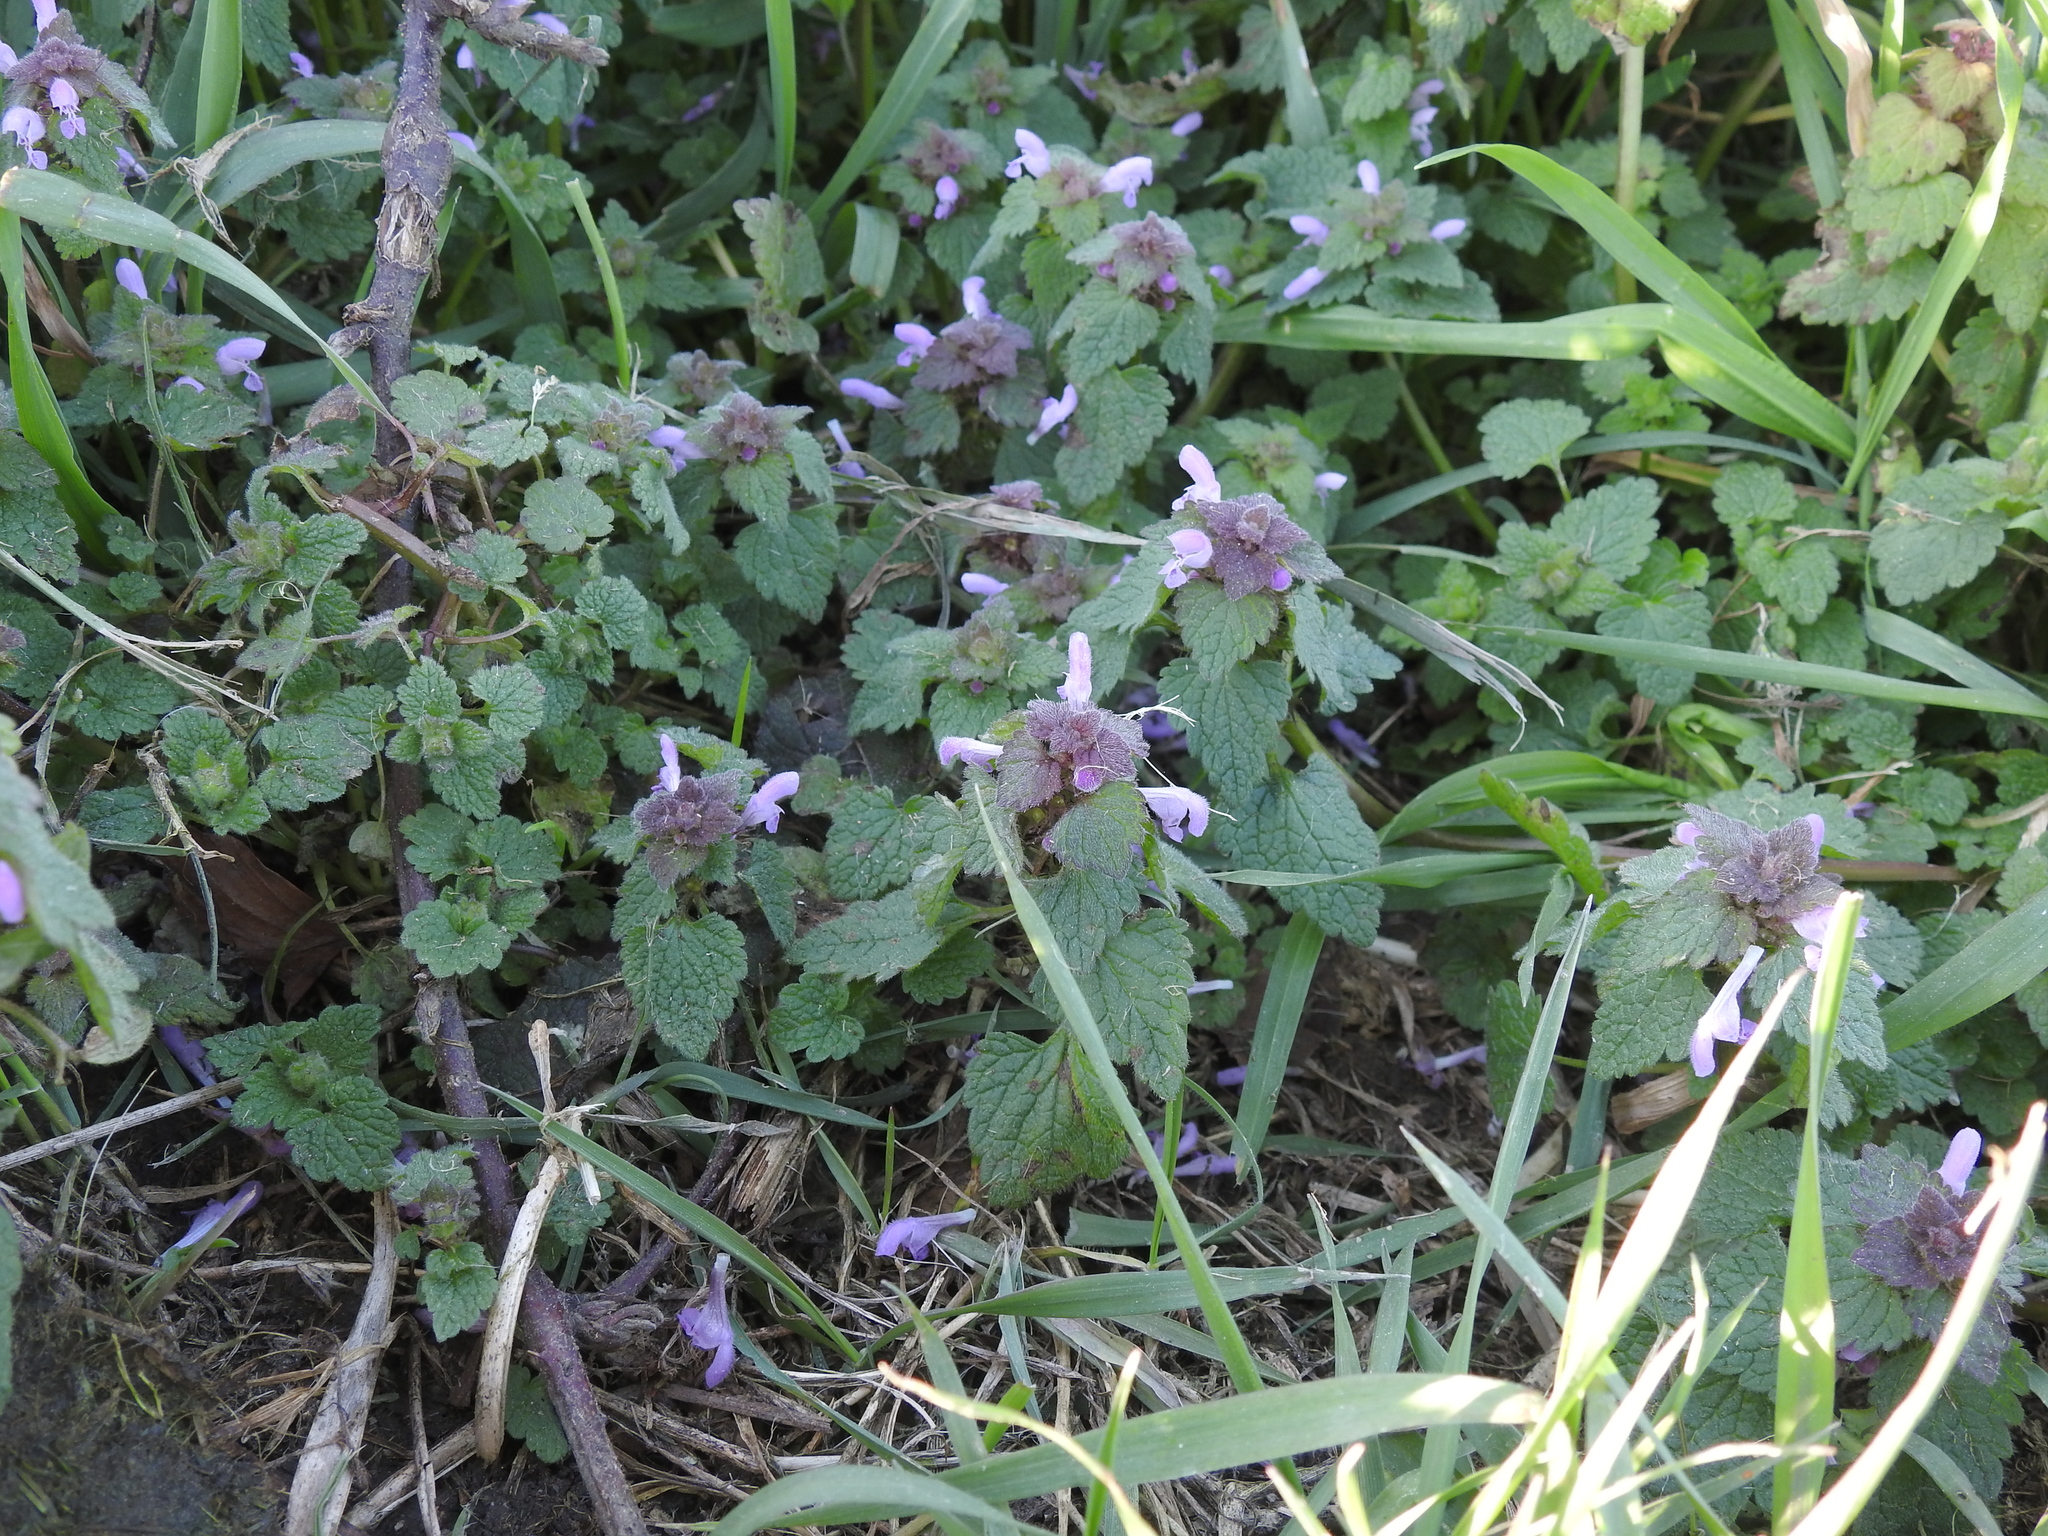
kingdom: Plantae
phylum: Tracheophyta
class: Magnoliopsida
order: Lamiales
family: Lamiaceae
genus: Lamium
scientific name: Lamium purpureum
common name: Red dead-nettle
